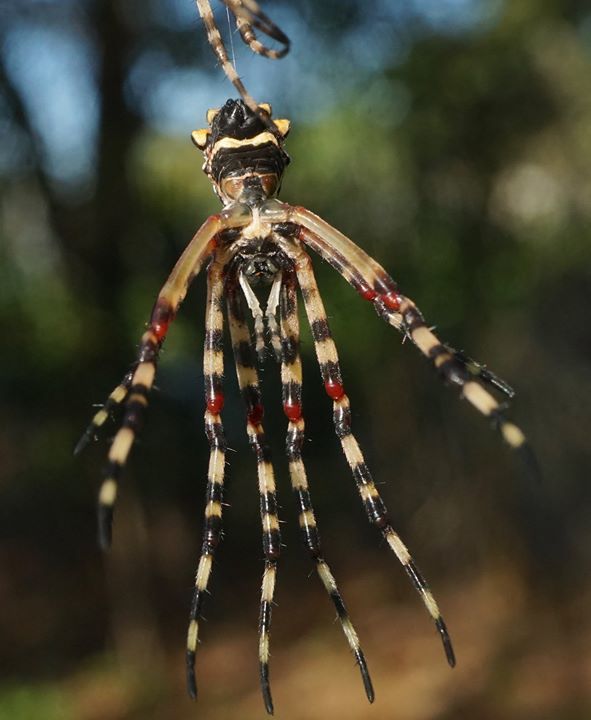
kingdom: Animalia
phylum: Arthropoda
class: Arachnida
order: Araneae
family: Araneidae
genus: Argiope
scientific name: Argiope argentata
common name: Orb weavers
